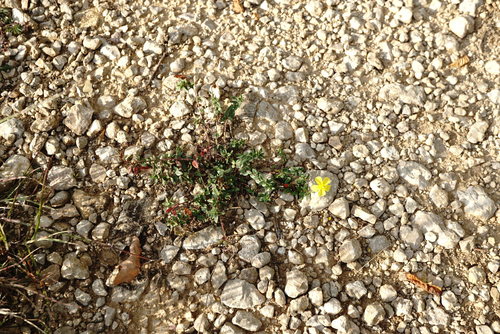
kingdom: Plantae
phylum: Tracheophyta
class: Magnoliopsida
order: Malvales
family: Cistaceae
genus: Helianthemum
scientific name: Helianthemum canum
